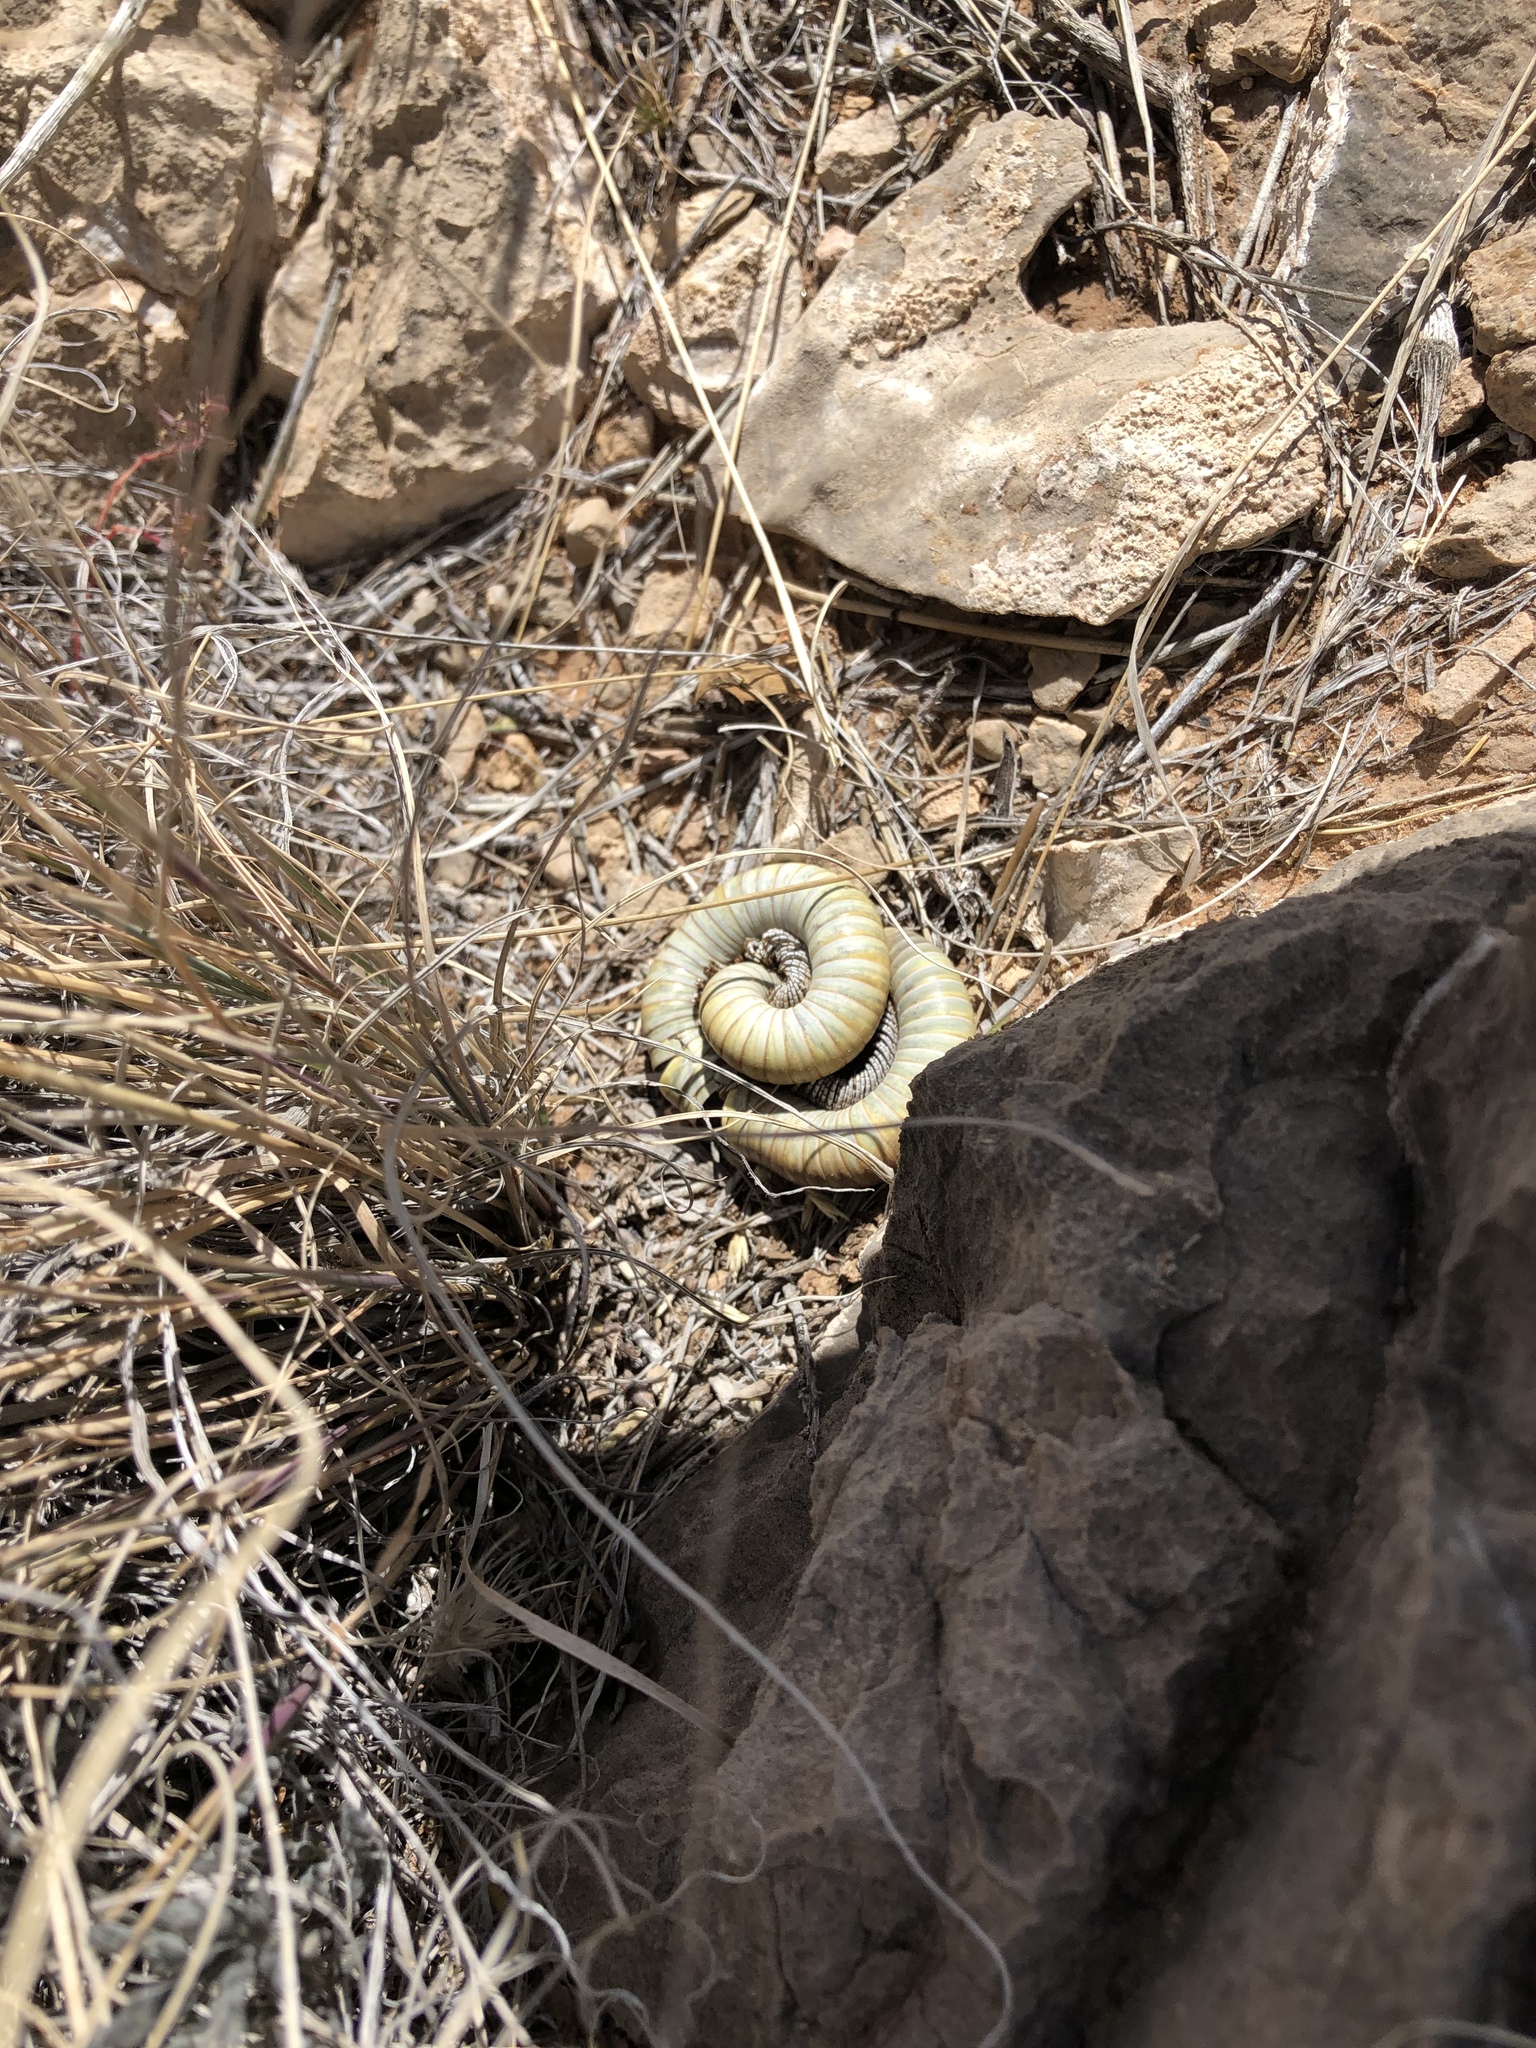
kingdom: Animalia
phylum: Arthropoda
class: Diplopoda
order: Spirostreptida
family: Spirostreptidae
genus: Orthoporus
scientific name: Orthoporus ornatus
